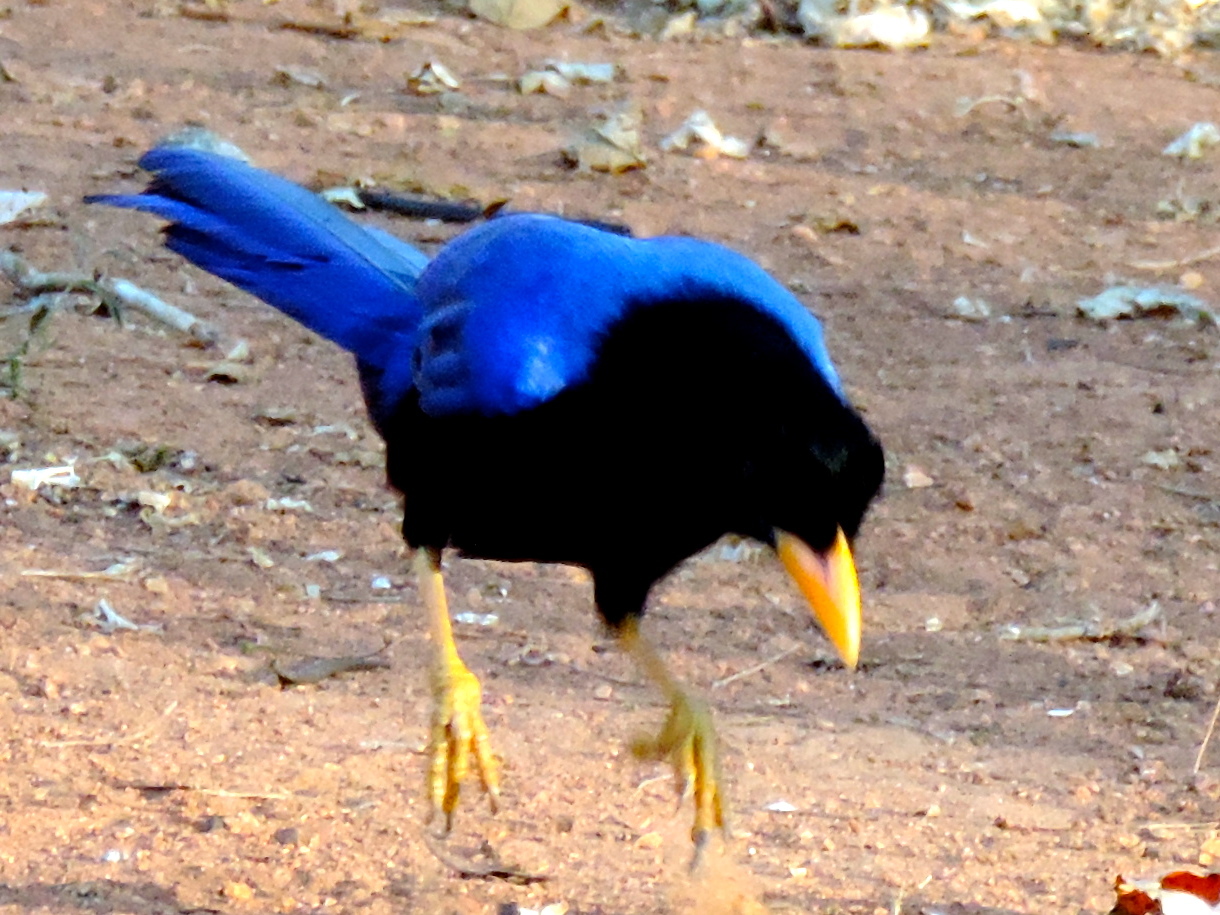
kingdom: Animalia
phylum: Chordata
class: Aves
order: Passeriformes
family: Corvidae
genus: Cyanocorax
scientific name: Cyanocorax beecheii
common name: Purplish-backed jay
